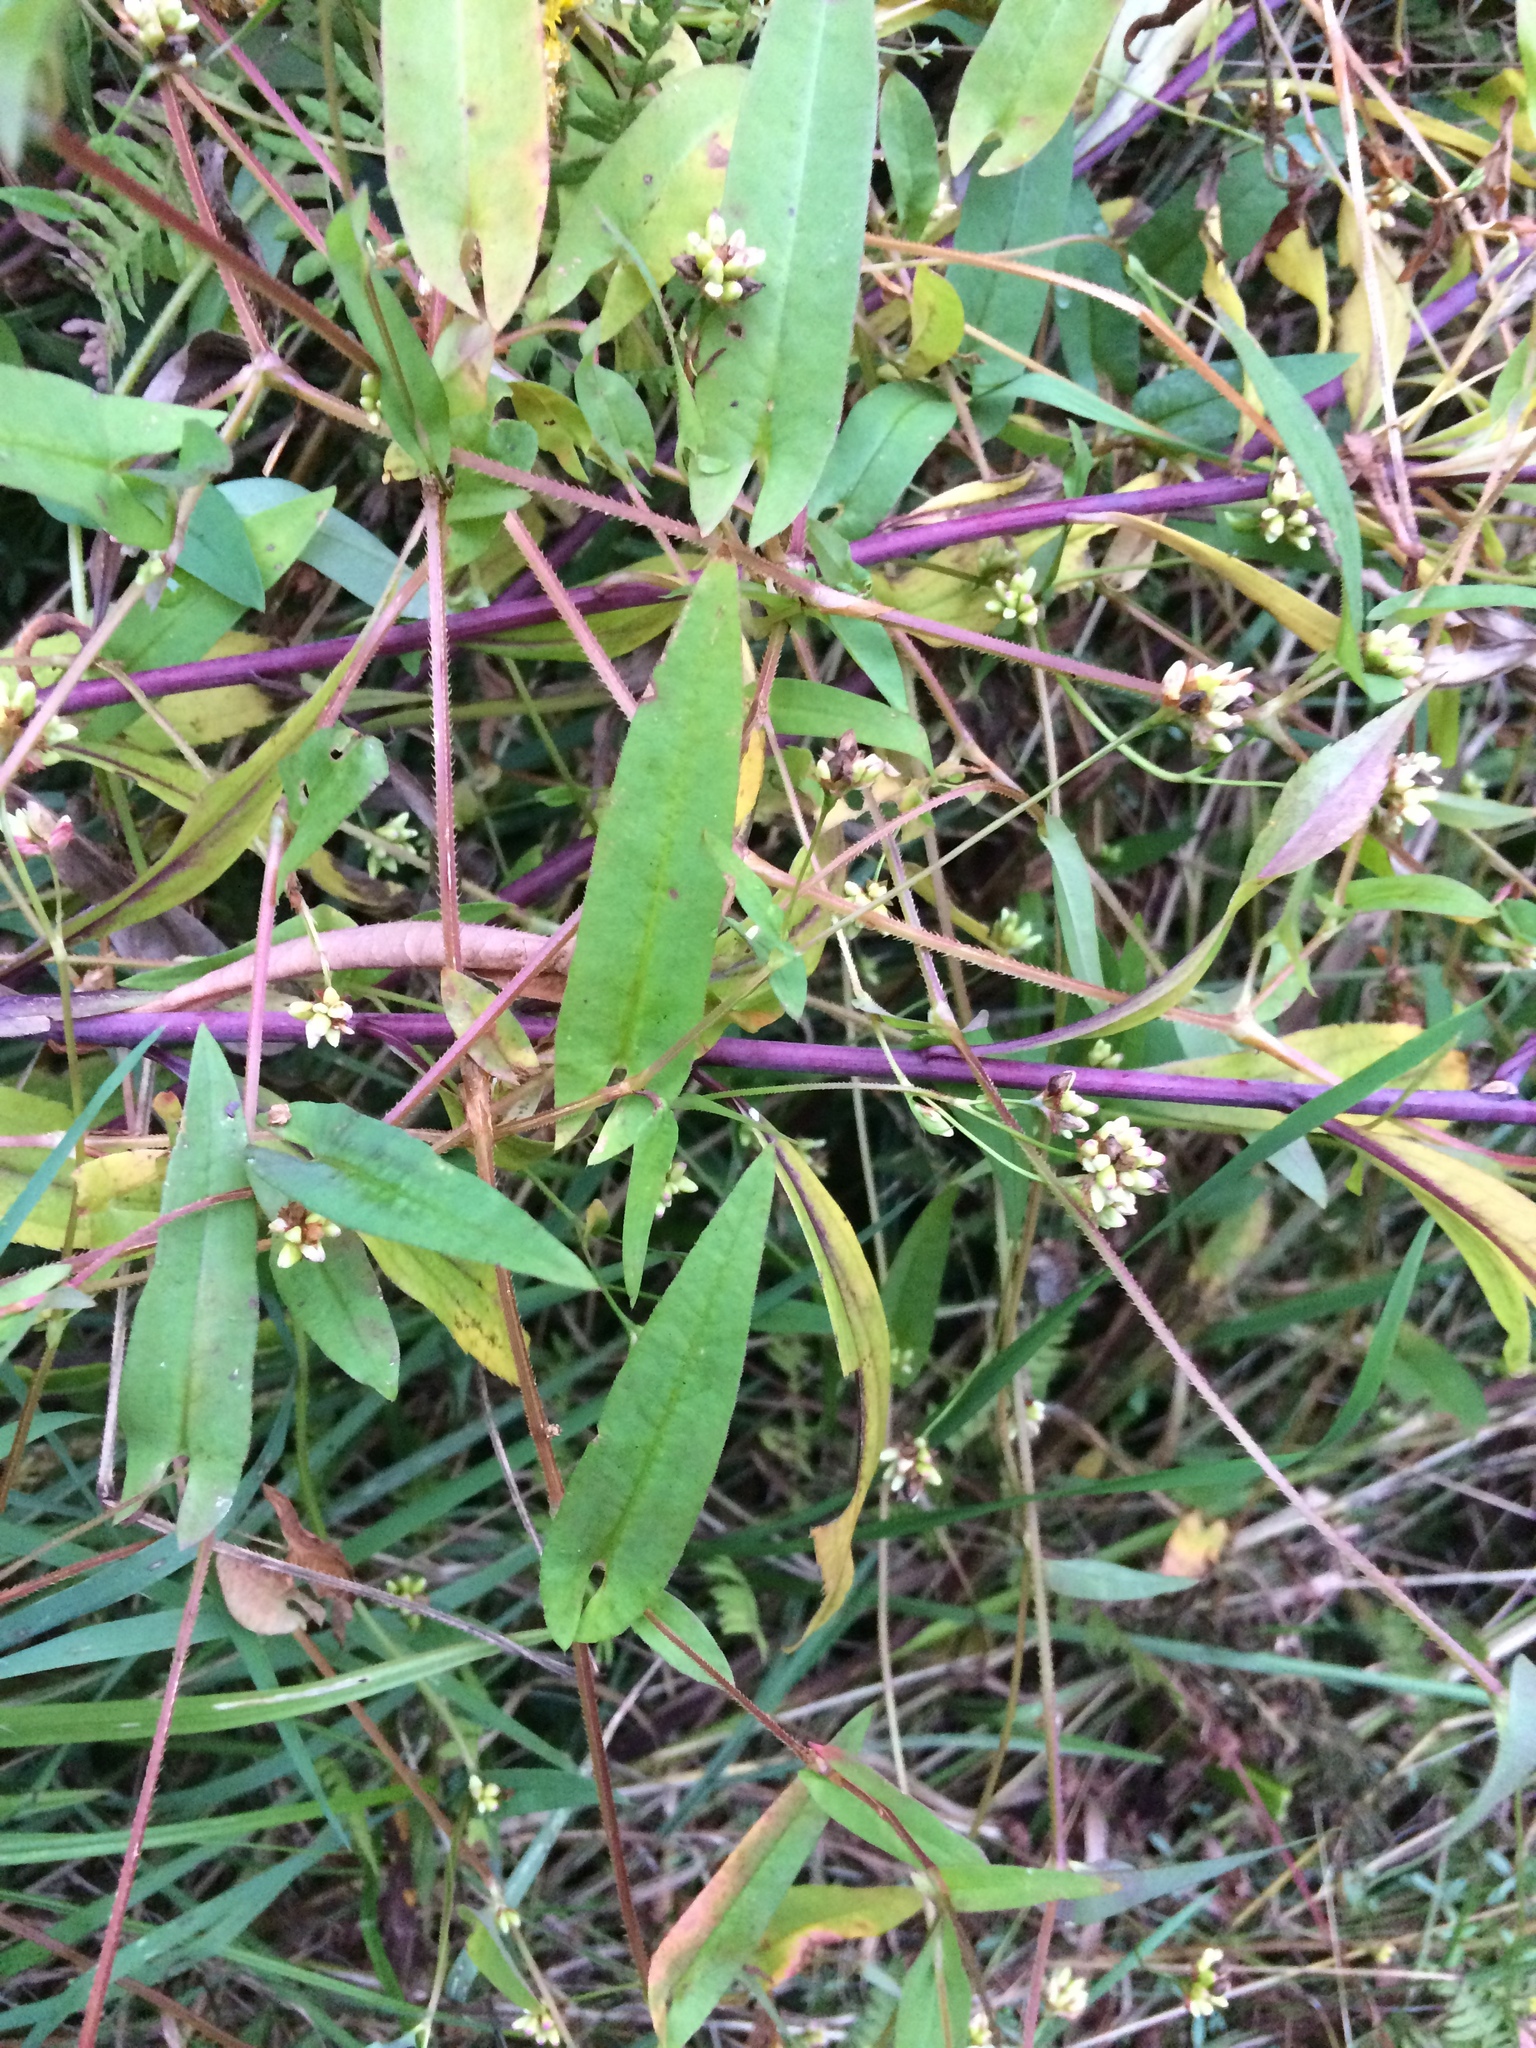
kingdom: Plantae
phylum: Tracheophyta
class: Magnoliopsida
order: Caryophyllales
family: Polygonaceae
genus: Persicaria
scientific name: Persicaria sagittata
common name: American tearthumb
